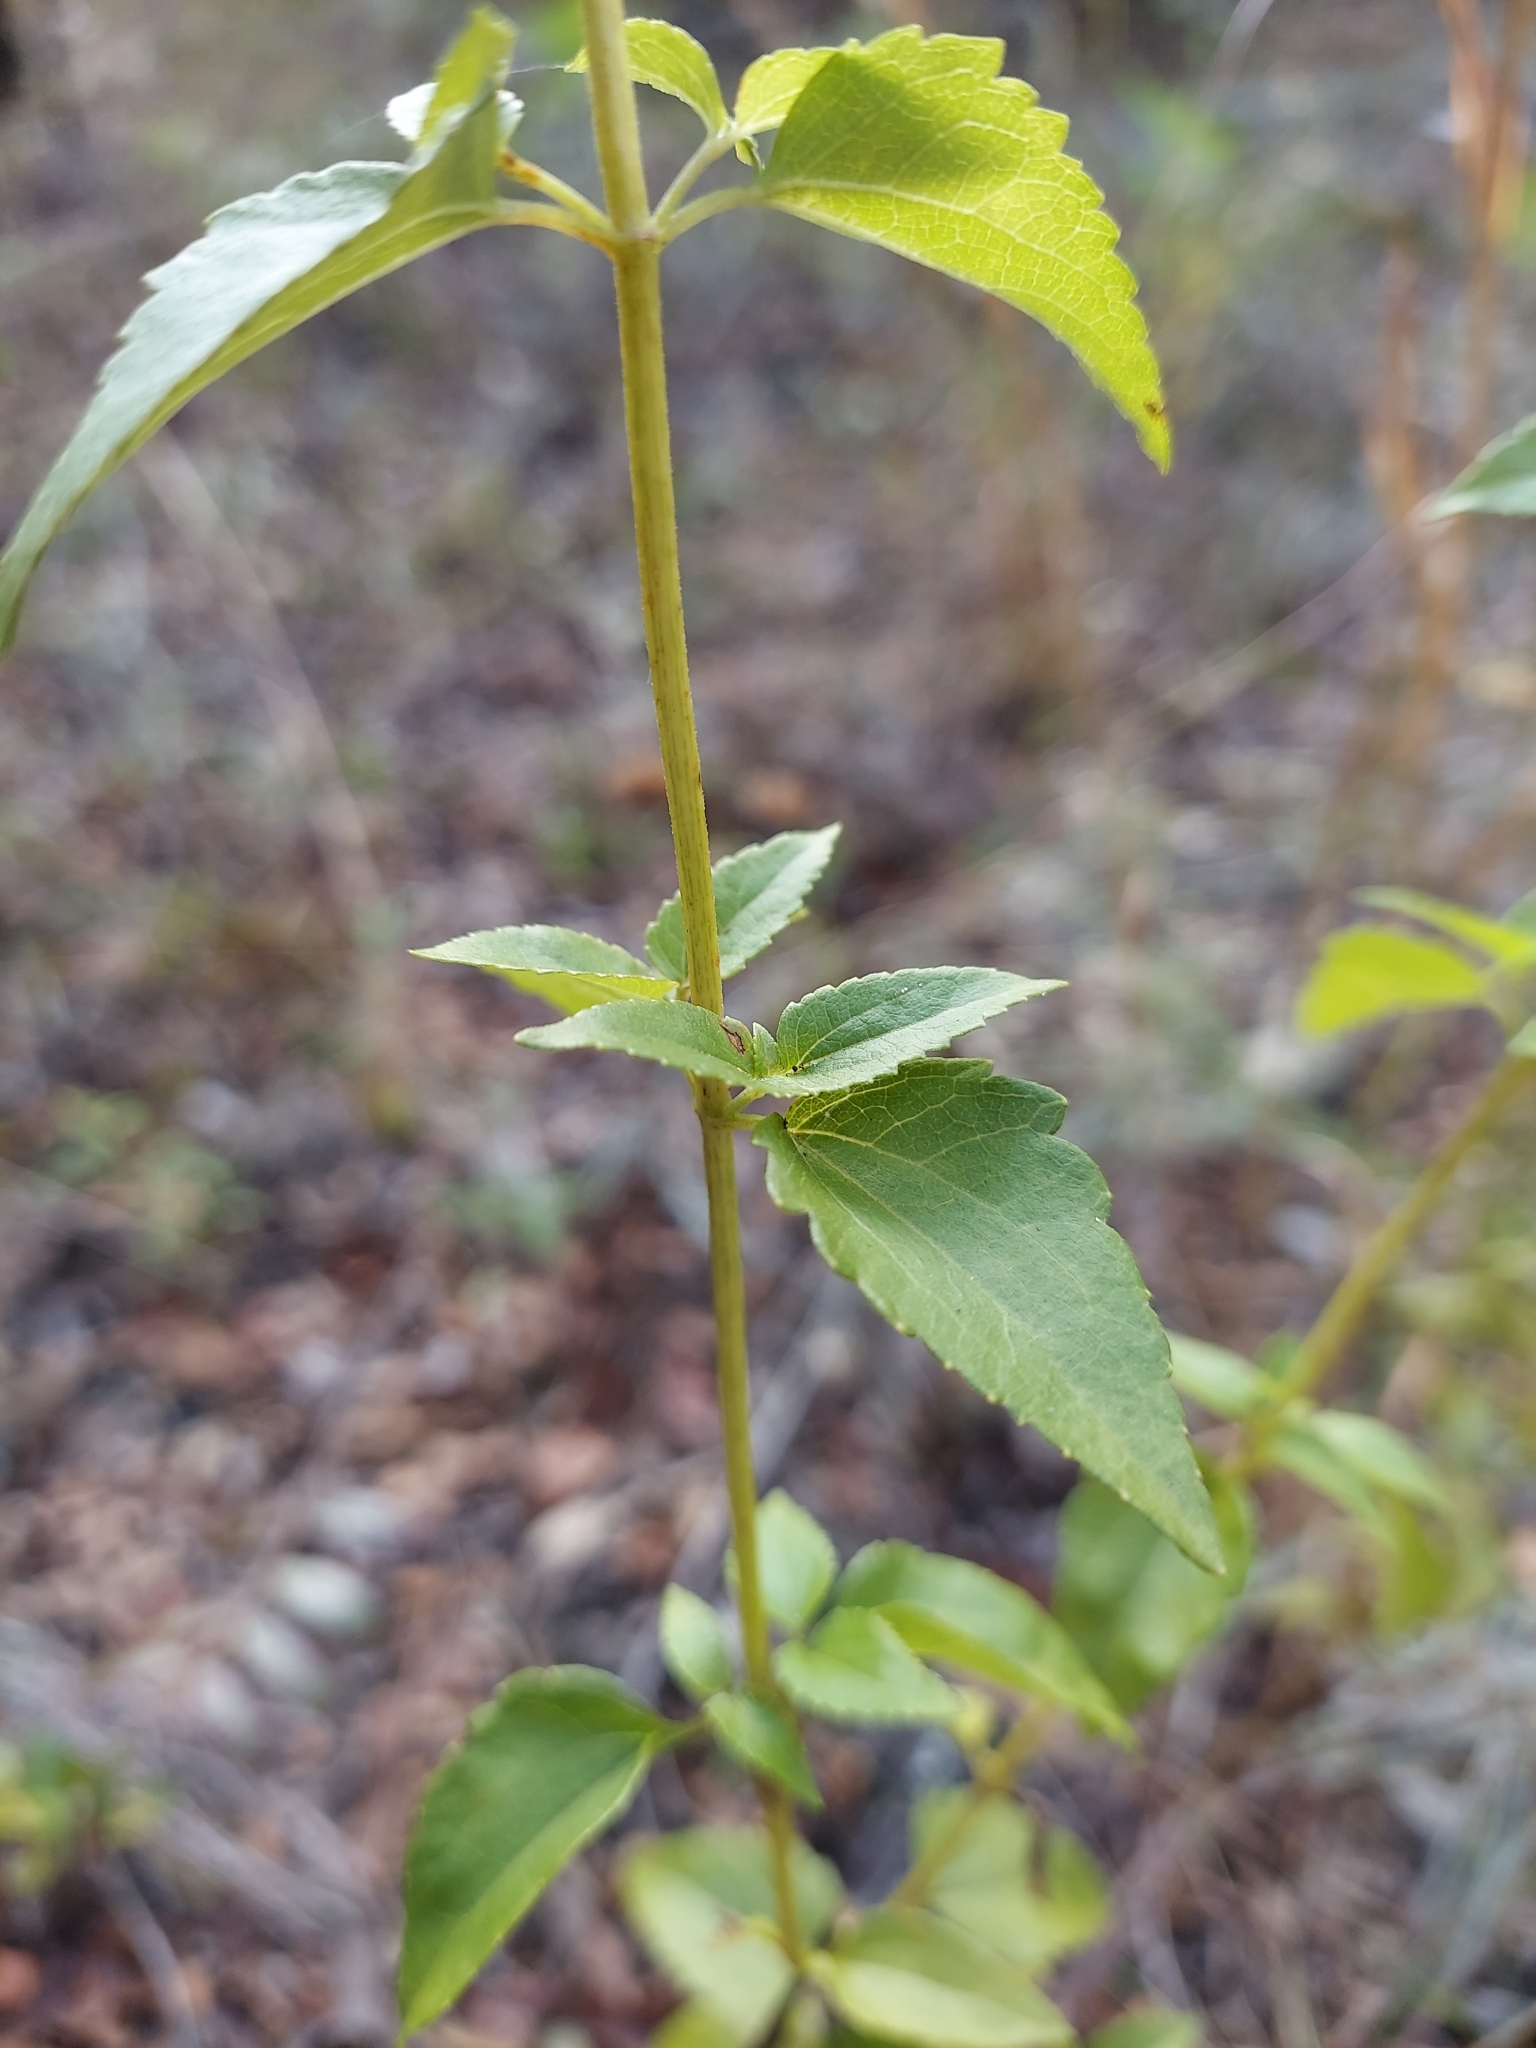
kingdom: Plantae
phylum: Tracheophyta
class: Magnoliopsida
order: Asterales
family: Asteraceae
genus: Ageratina
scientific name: Ageratina jucunda
